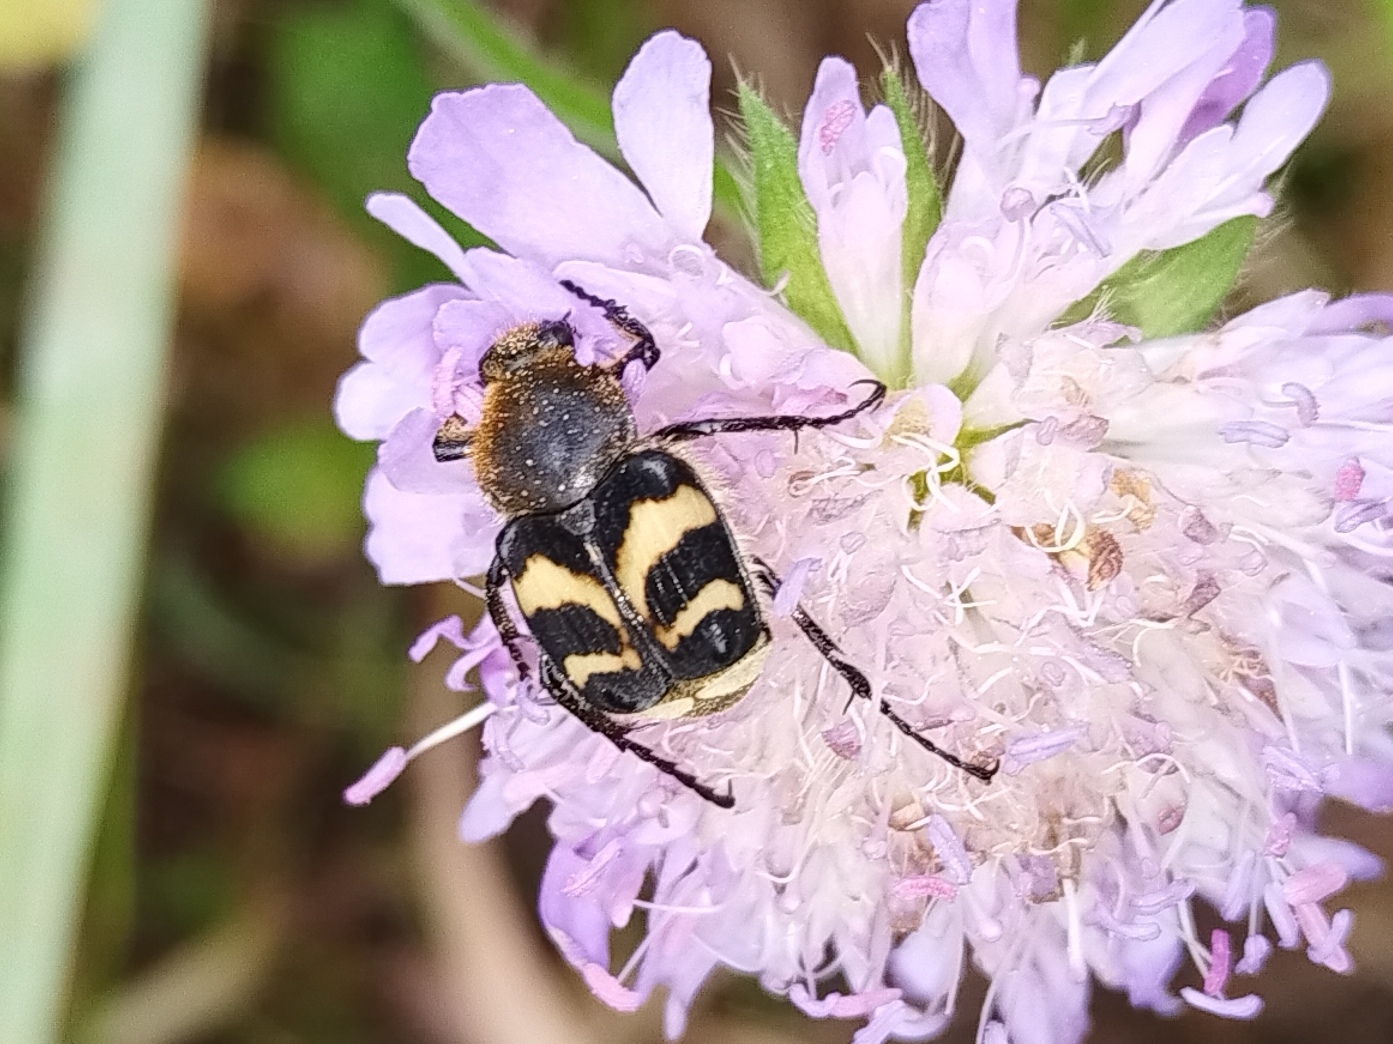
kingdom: Animalia
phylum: Arthropoda
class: Insecta
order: Coleoptera
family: Scarabaeidae
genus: Trichius
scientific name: Trichius fasciatus
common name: Bee beetle
